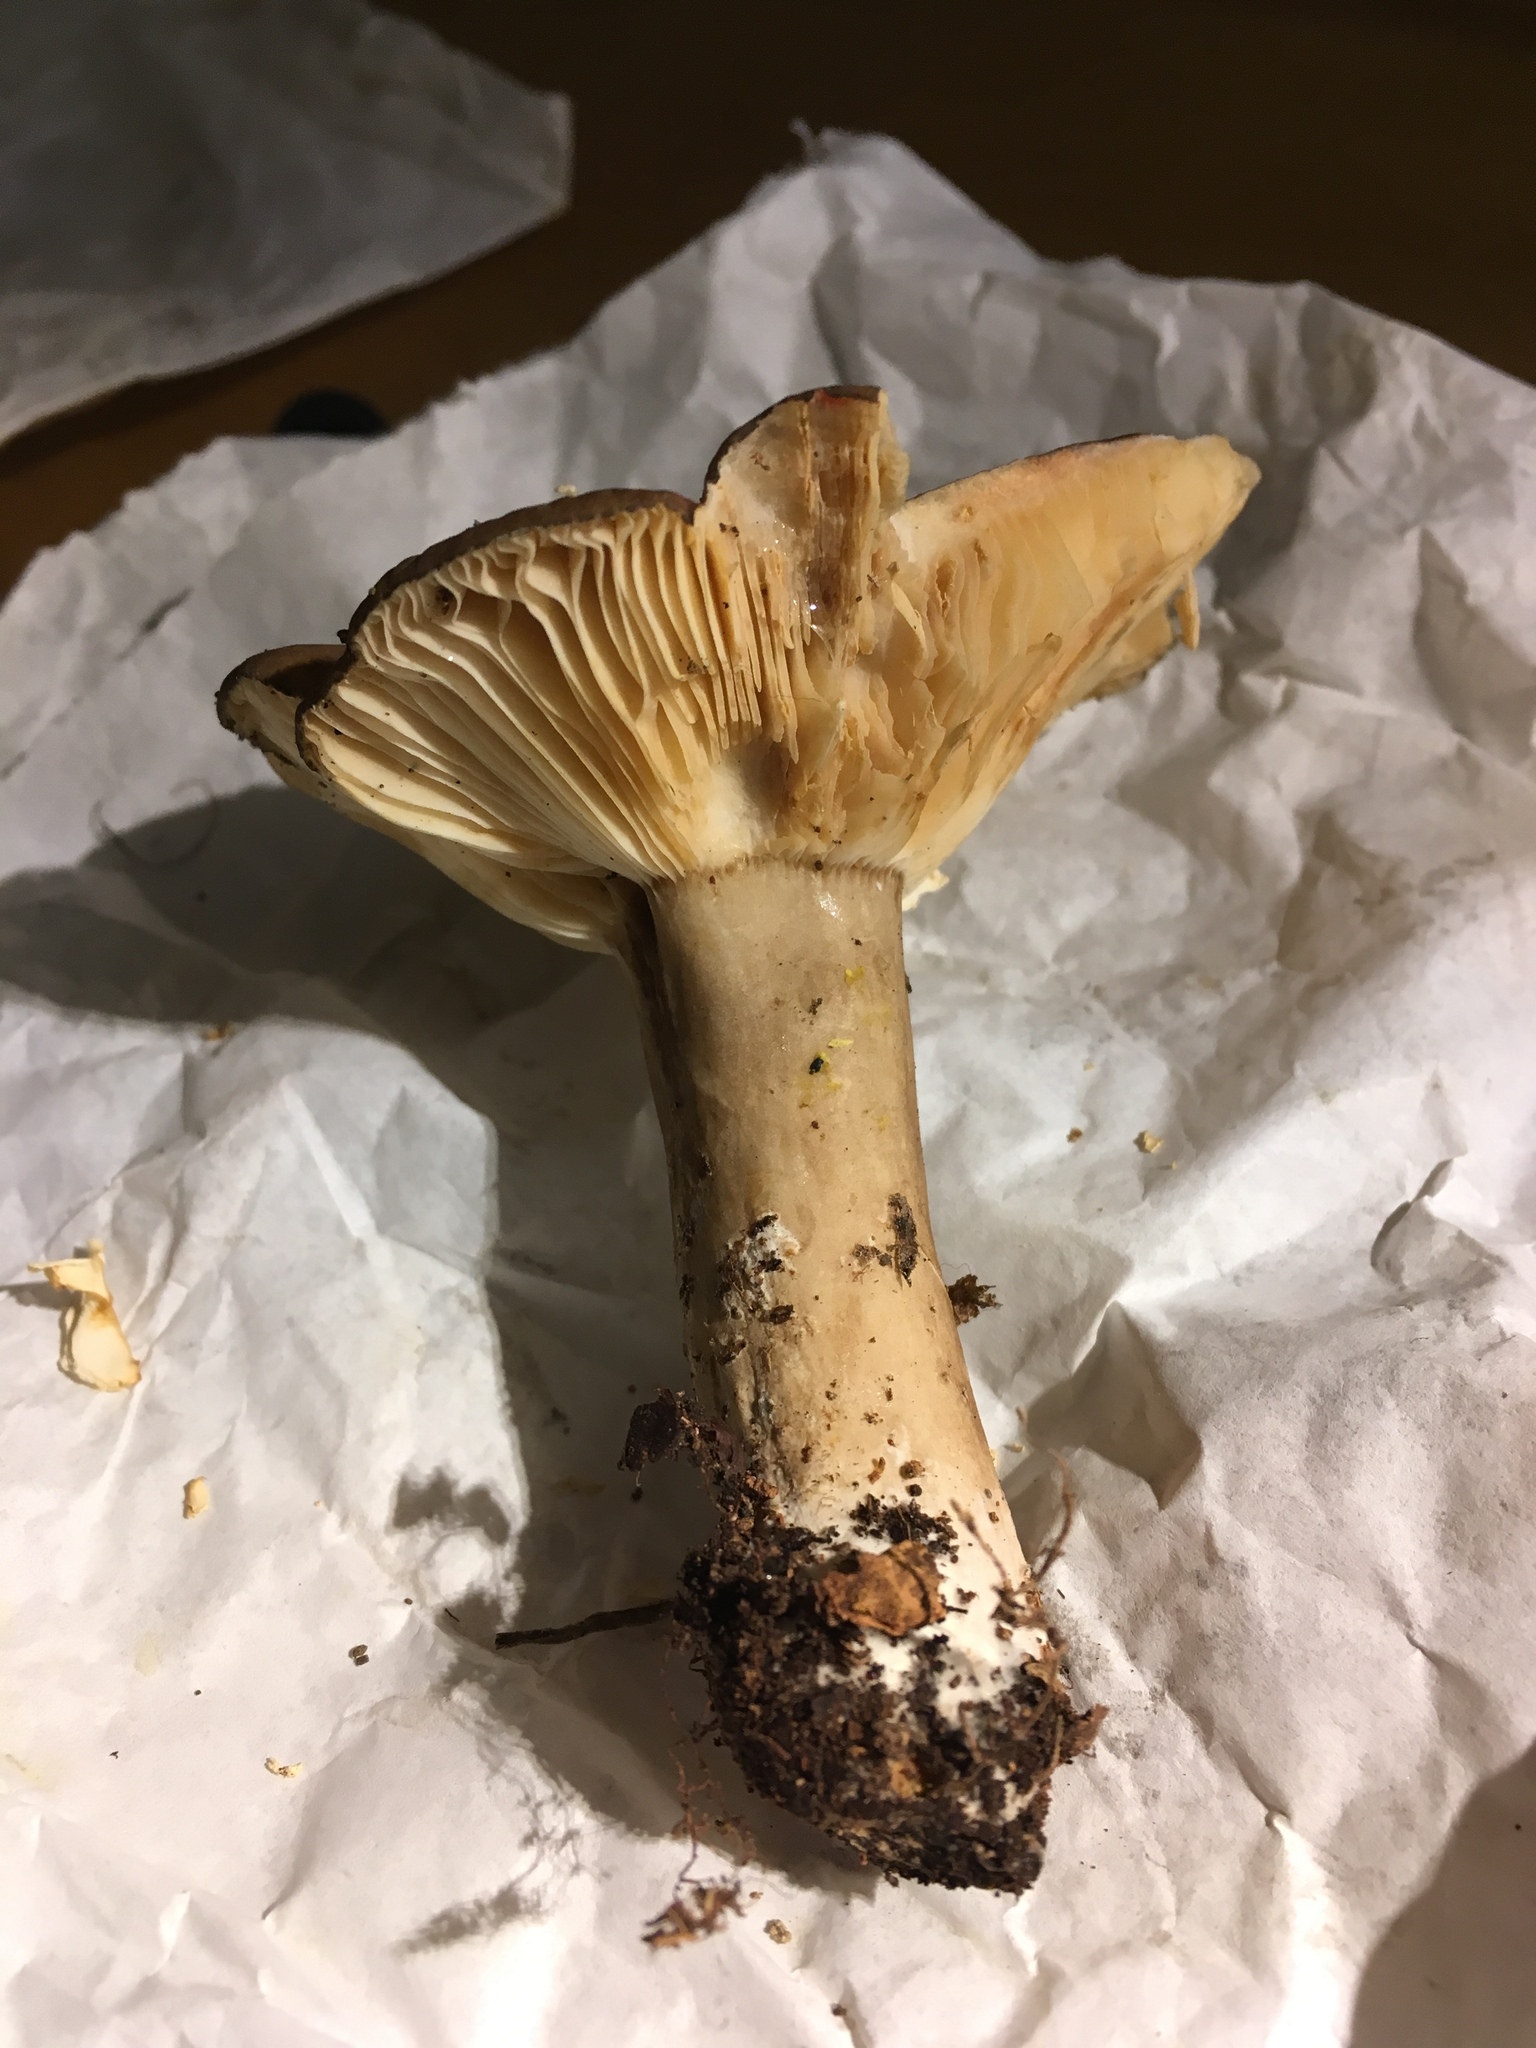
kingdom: Fungi
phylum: Basidiomycota
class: Agaricomycetes
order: Russulales
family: Russulaceae
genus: Lactarius
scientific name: Lactarius fuliginosus
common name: Sooty milkcap
